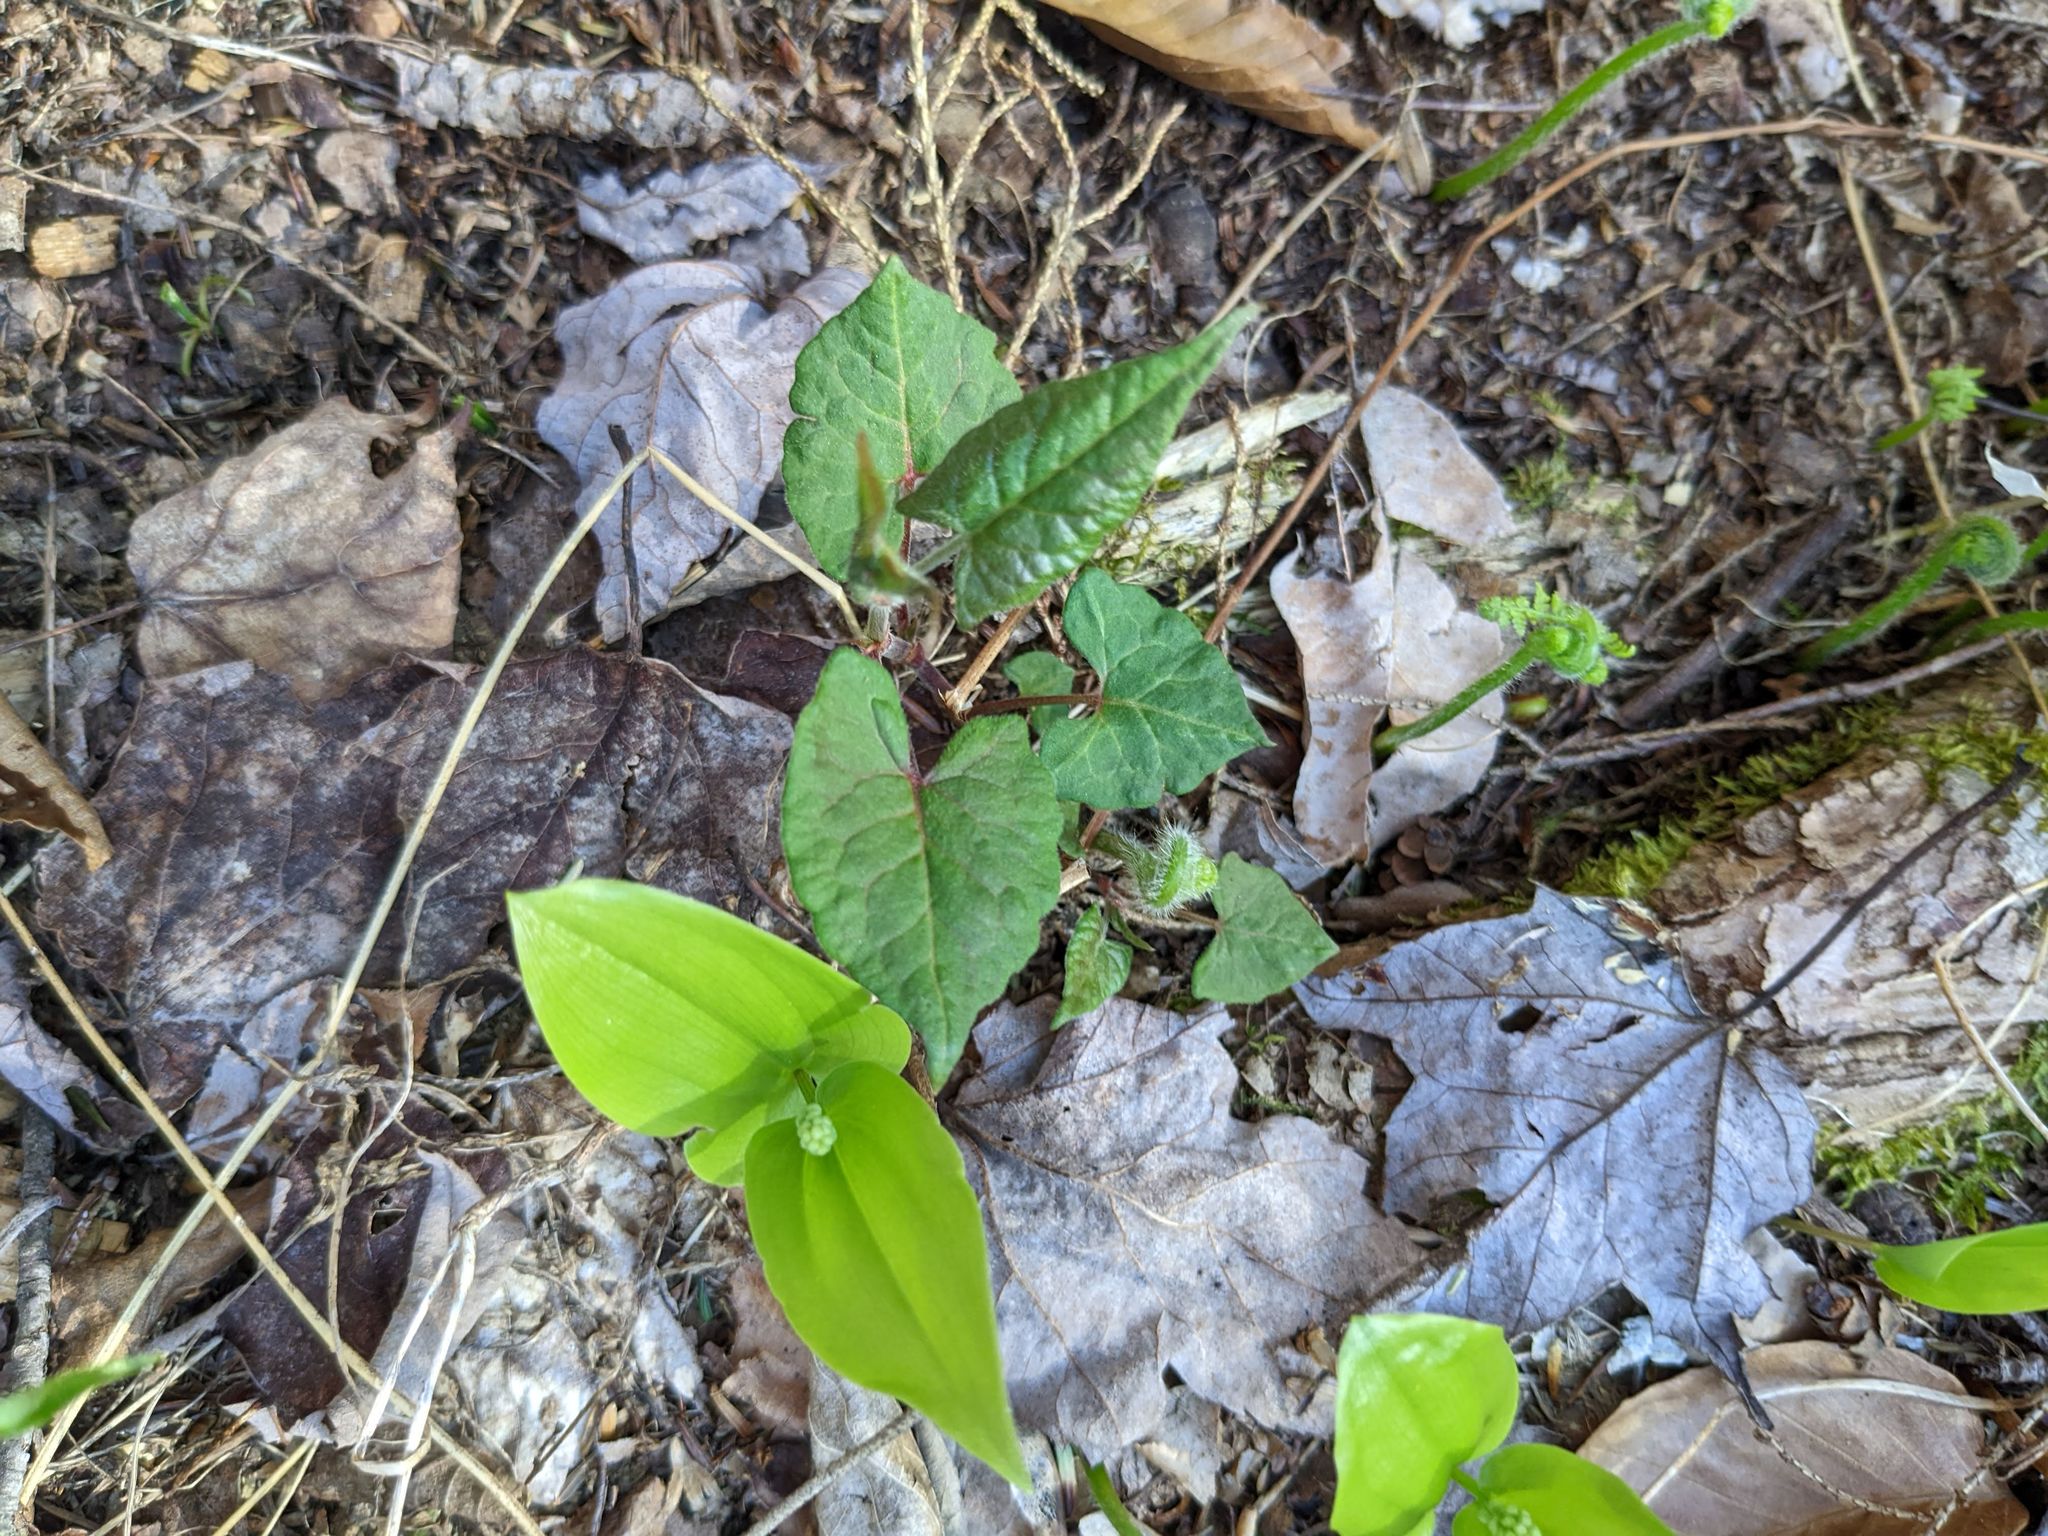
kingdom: Plantae
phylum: Tracheophyta
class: Liliopsida
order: Asparagales
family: Asparagaceae
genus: Maianthemum
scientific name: Maianthemum canadense
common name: False lily-of-the-valley
